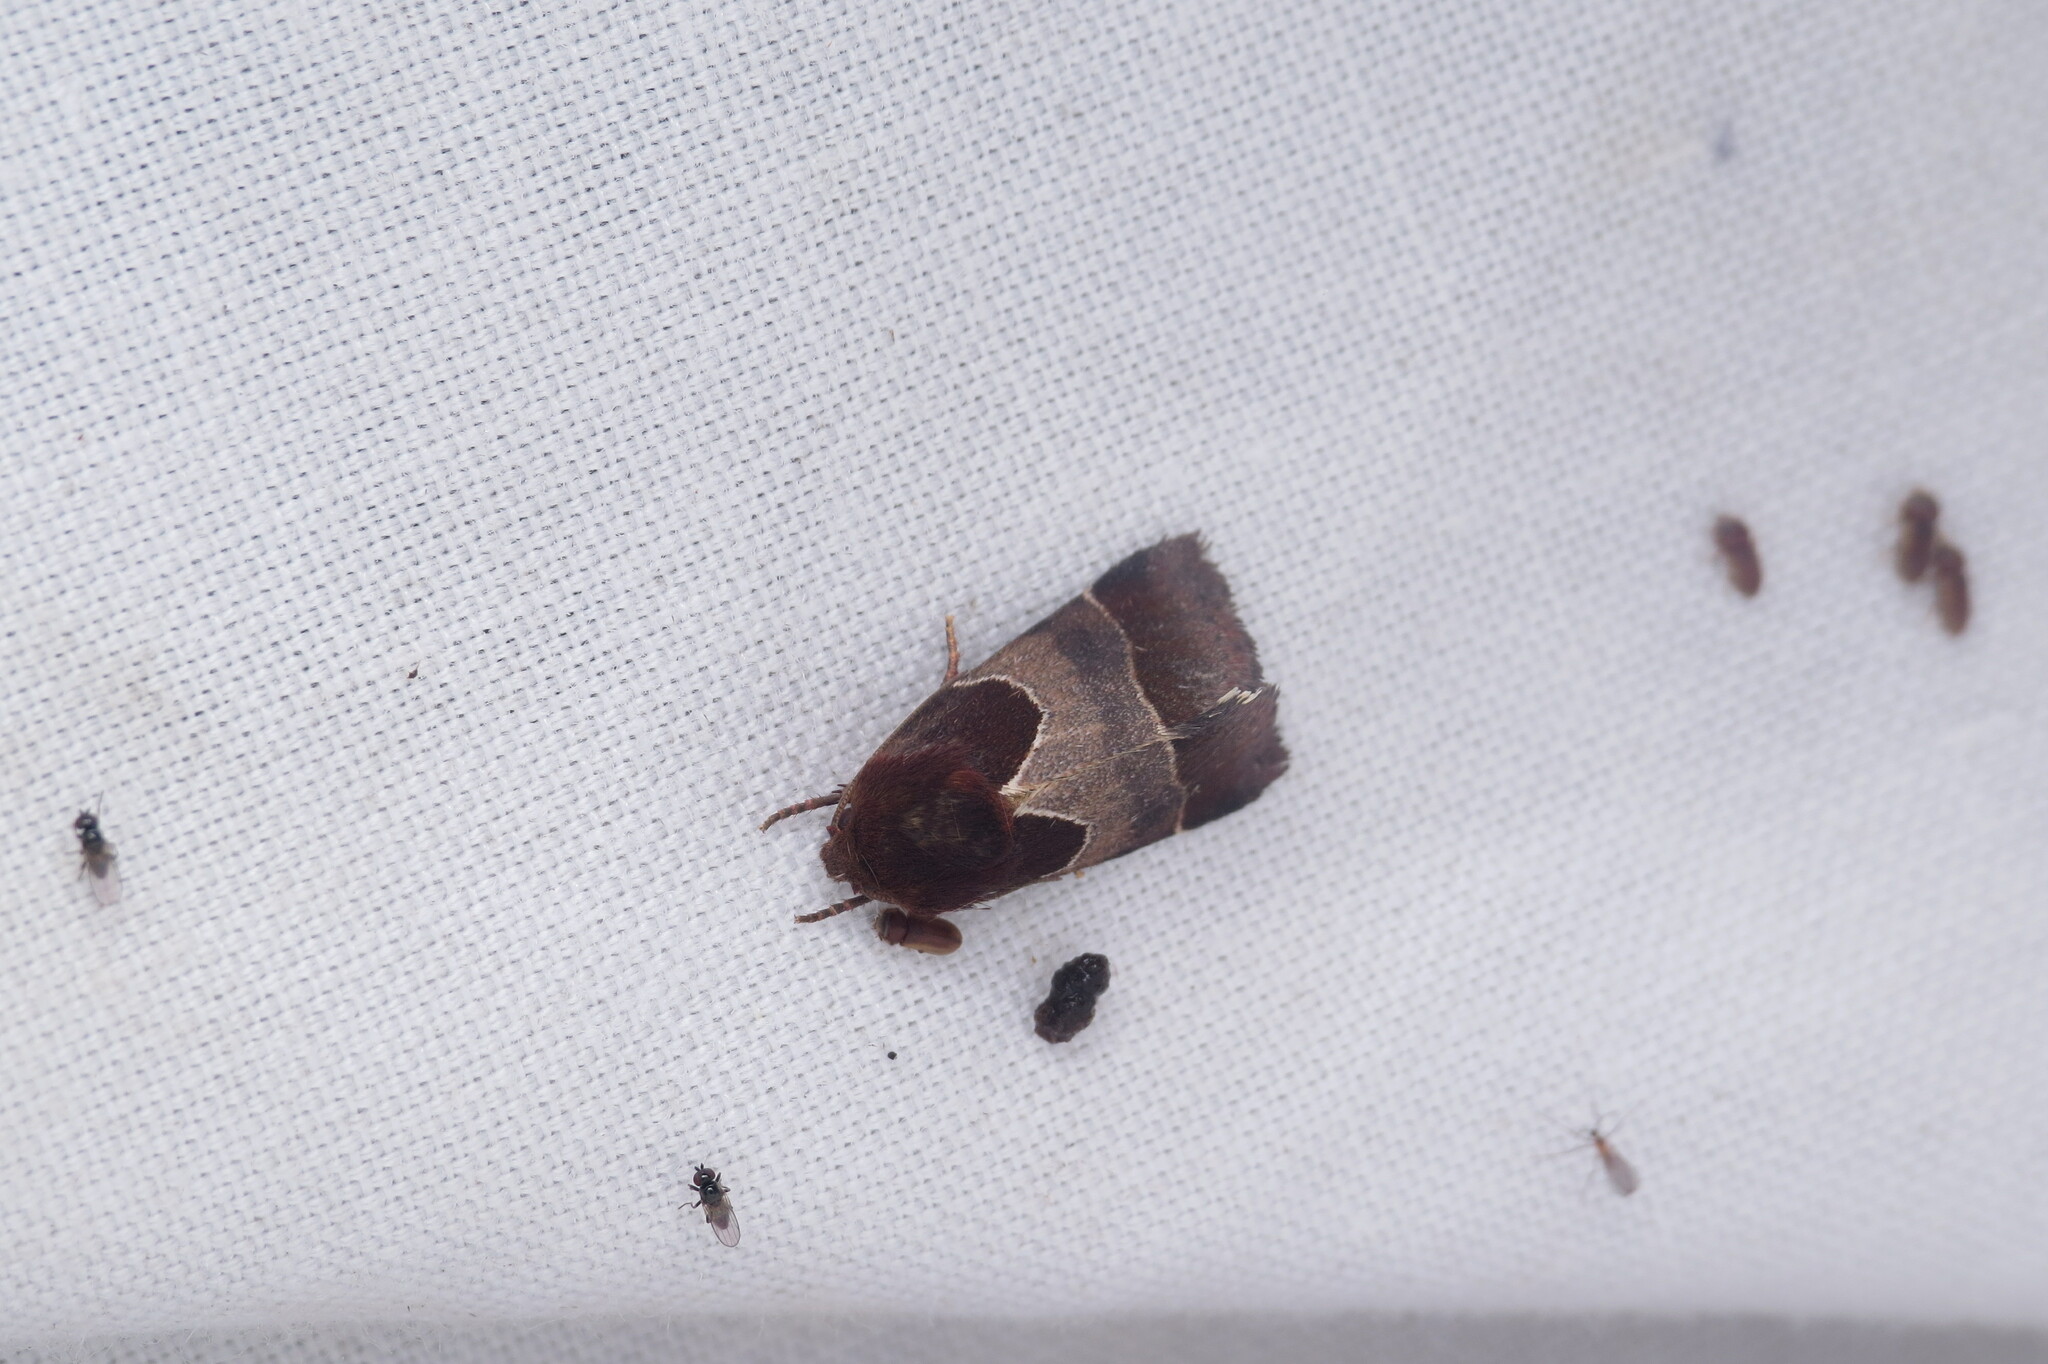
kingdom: Animalia
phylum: Arthropoda
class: Insecta
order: Lepidoptera
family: Noctuidae
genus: Schinia
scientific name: Schinia arcigera
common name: Arcigera flower moth
